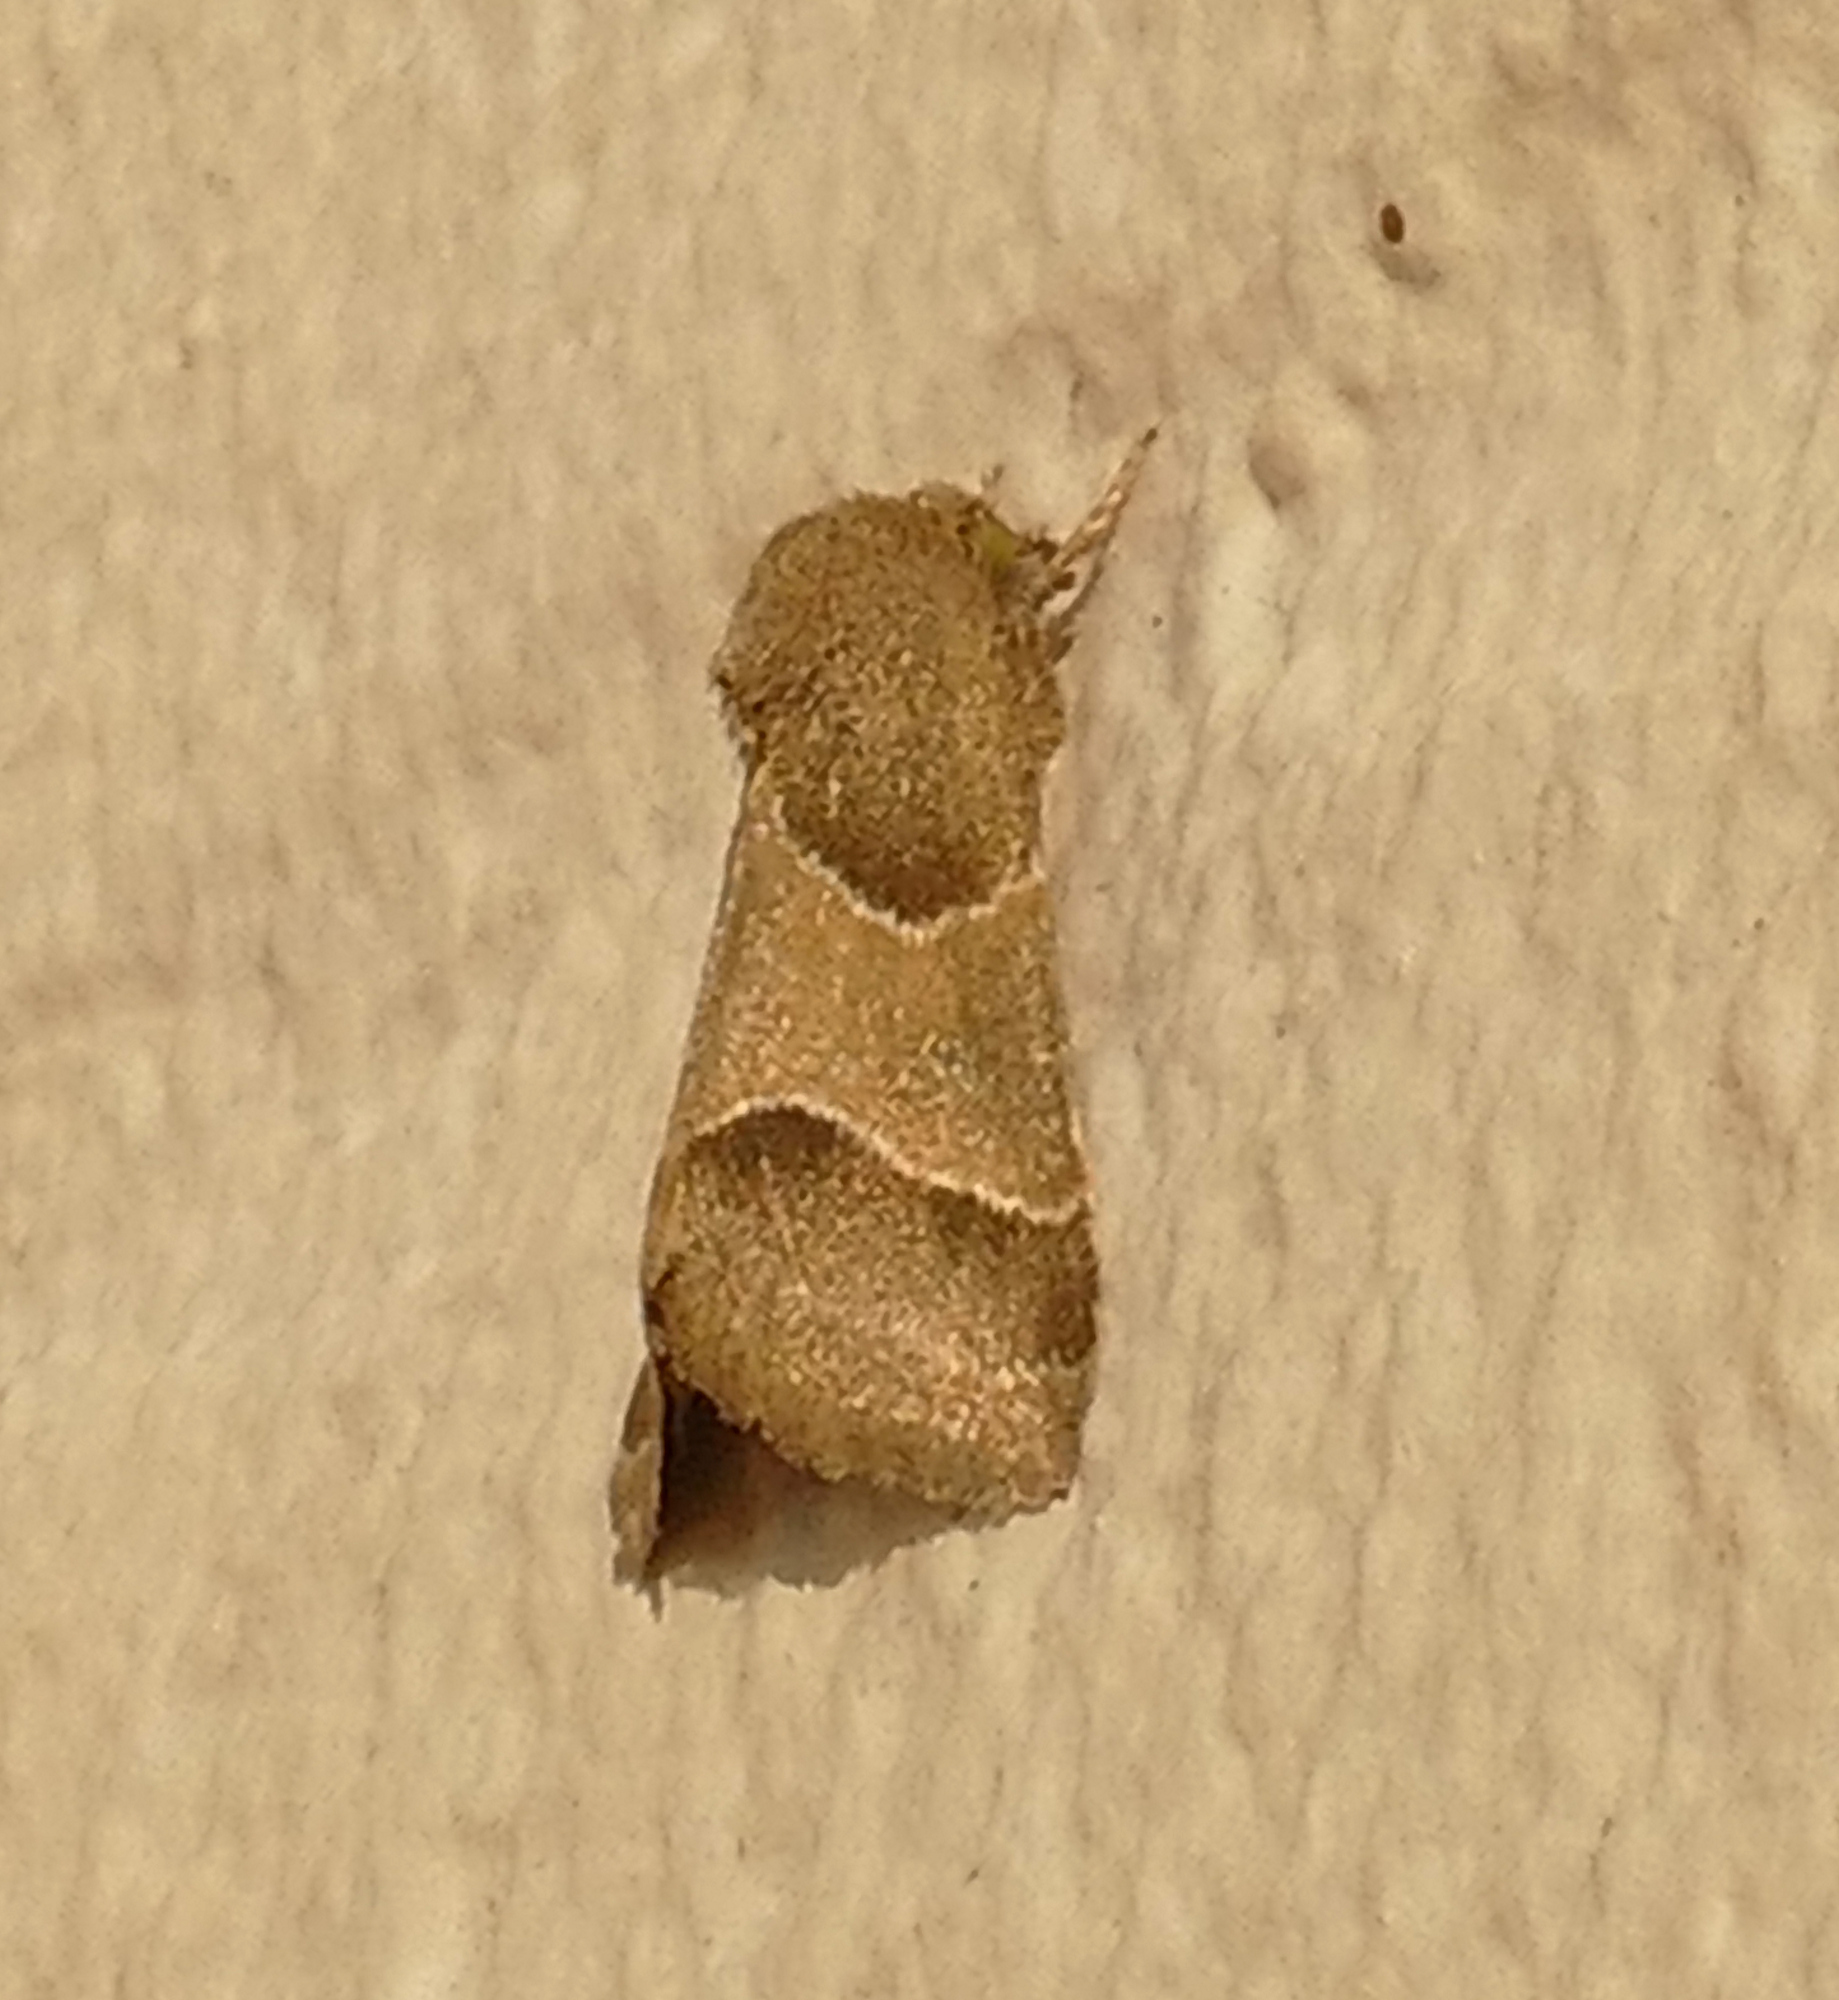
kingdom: Animalia
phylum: Arthropoda
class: Insecta
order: Lepidoptera
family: Noctuidae
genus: Schinia
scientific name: Schinia gracilenta
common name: Slender flower moth
